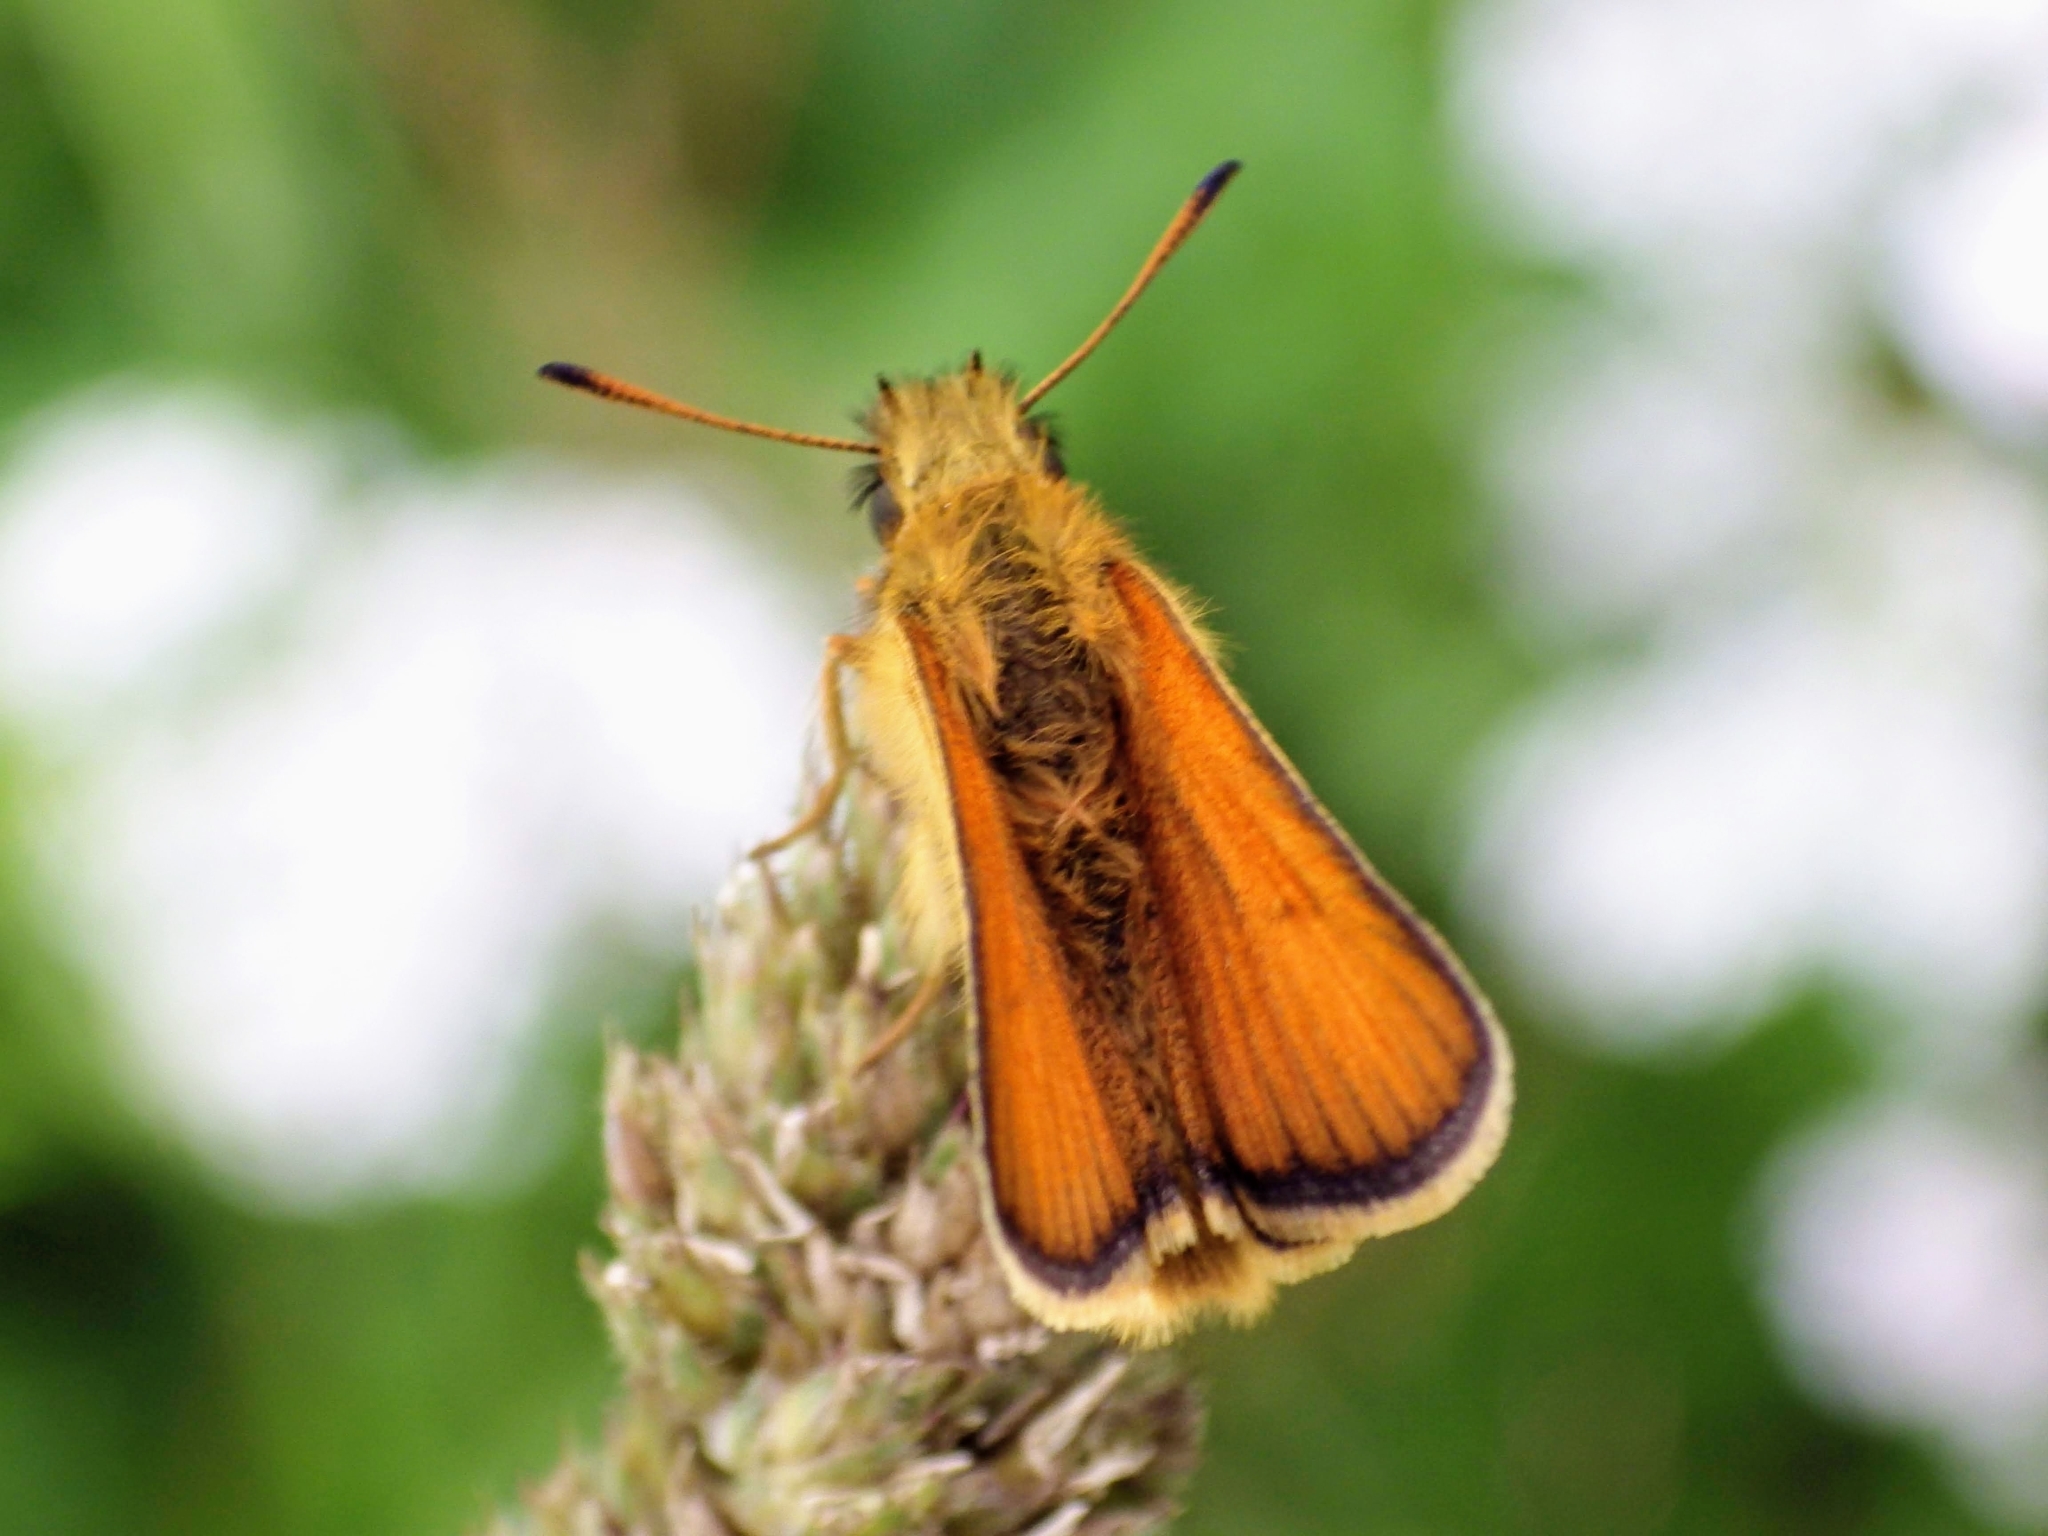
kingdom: Animalia
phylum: Arthropoda
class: Insecta
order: Lepidoptera
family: Hesperiidae
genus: Thymelicus
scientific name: Thymelicus lineola
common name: Essex skipper
